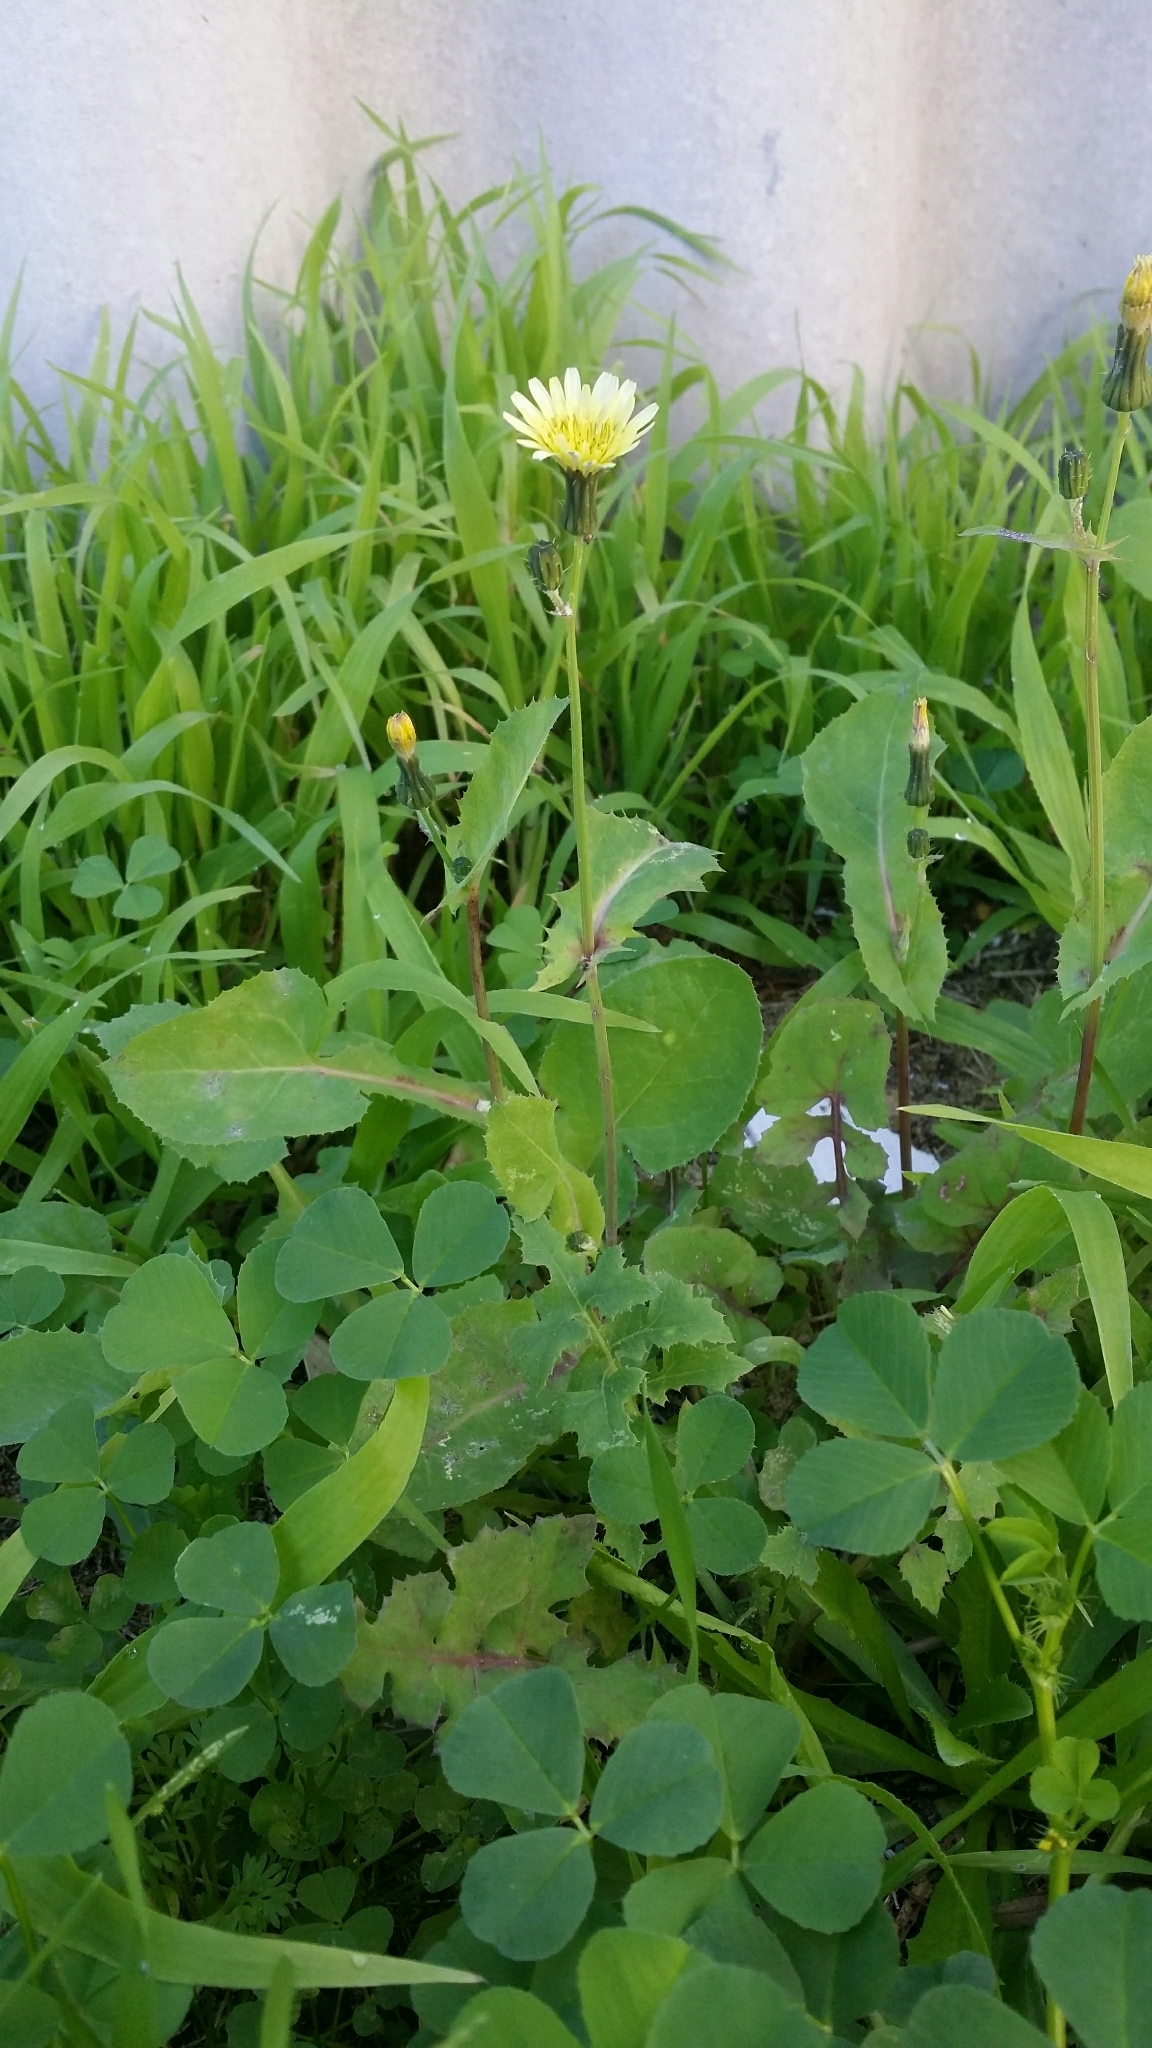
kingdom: Plantae
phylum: Tracheophyta
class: Magnoliopsida
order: Asterales
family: Asteraceae
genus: Sonchus
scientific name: Sonchus oleraceus
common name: Common sowthistle
